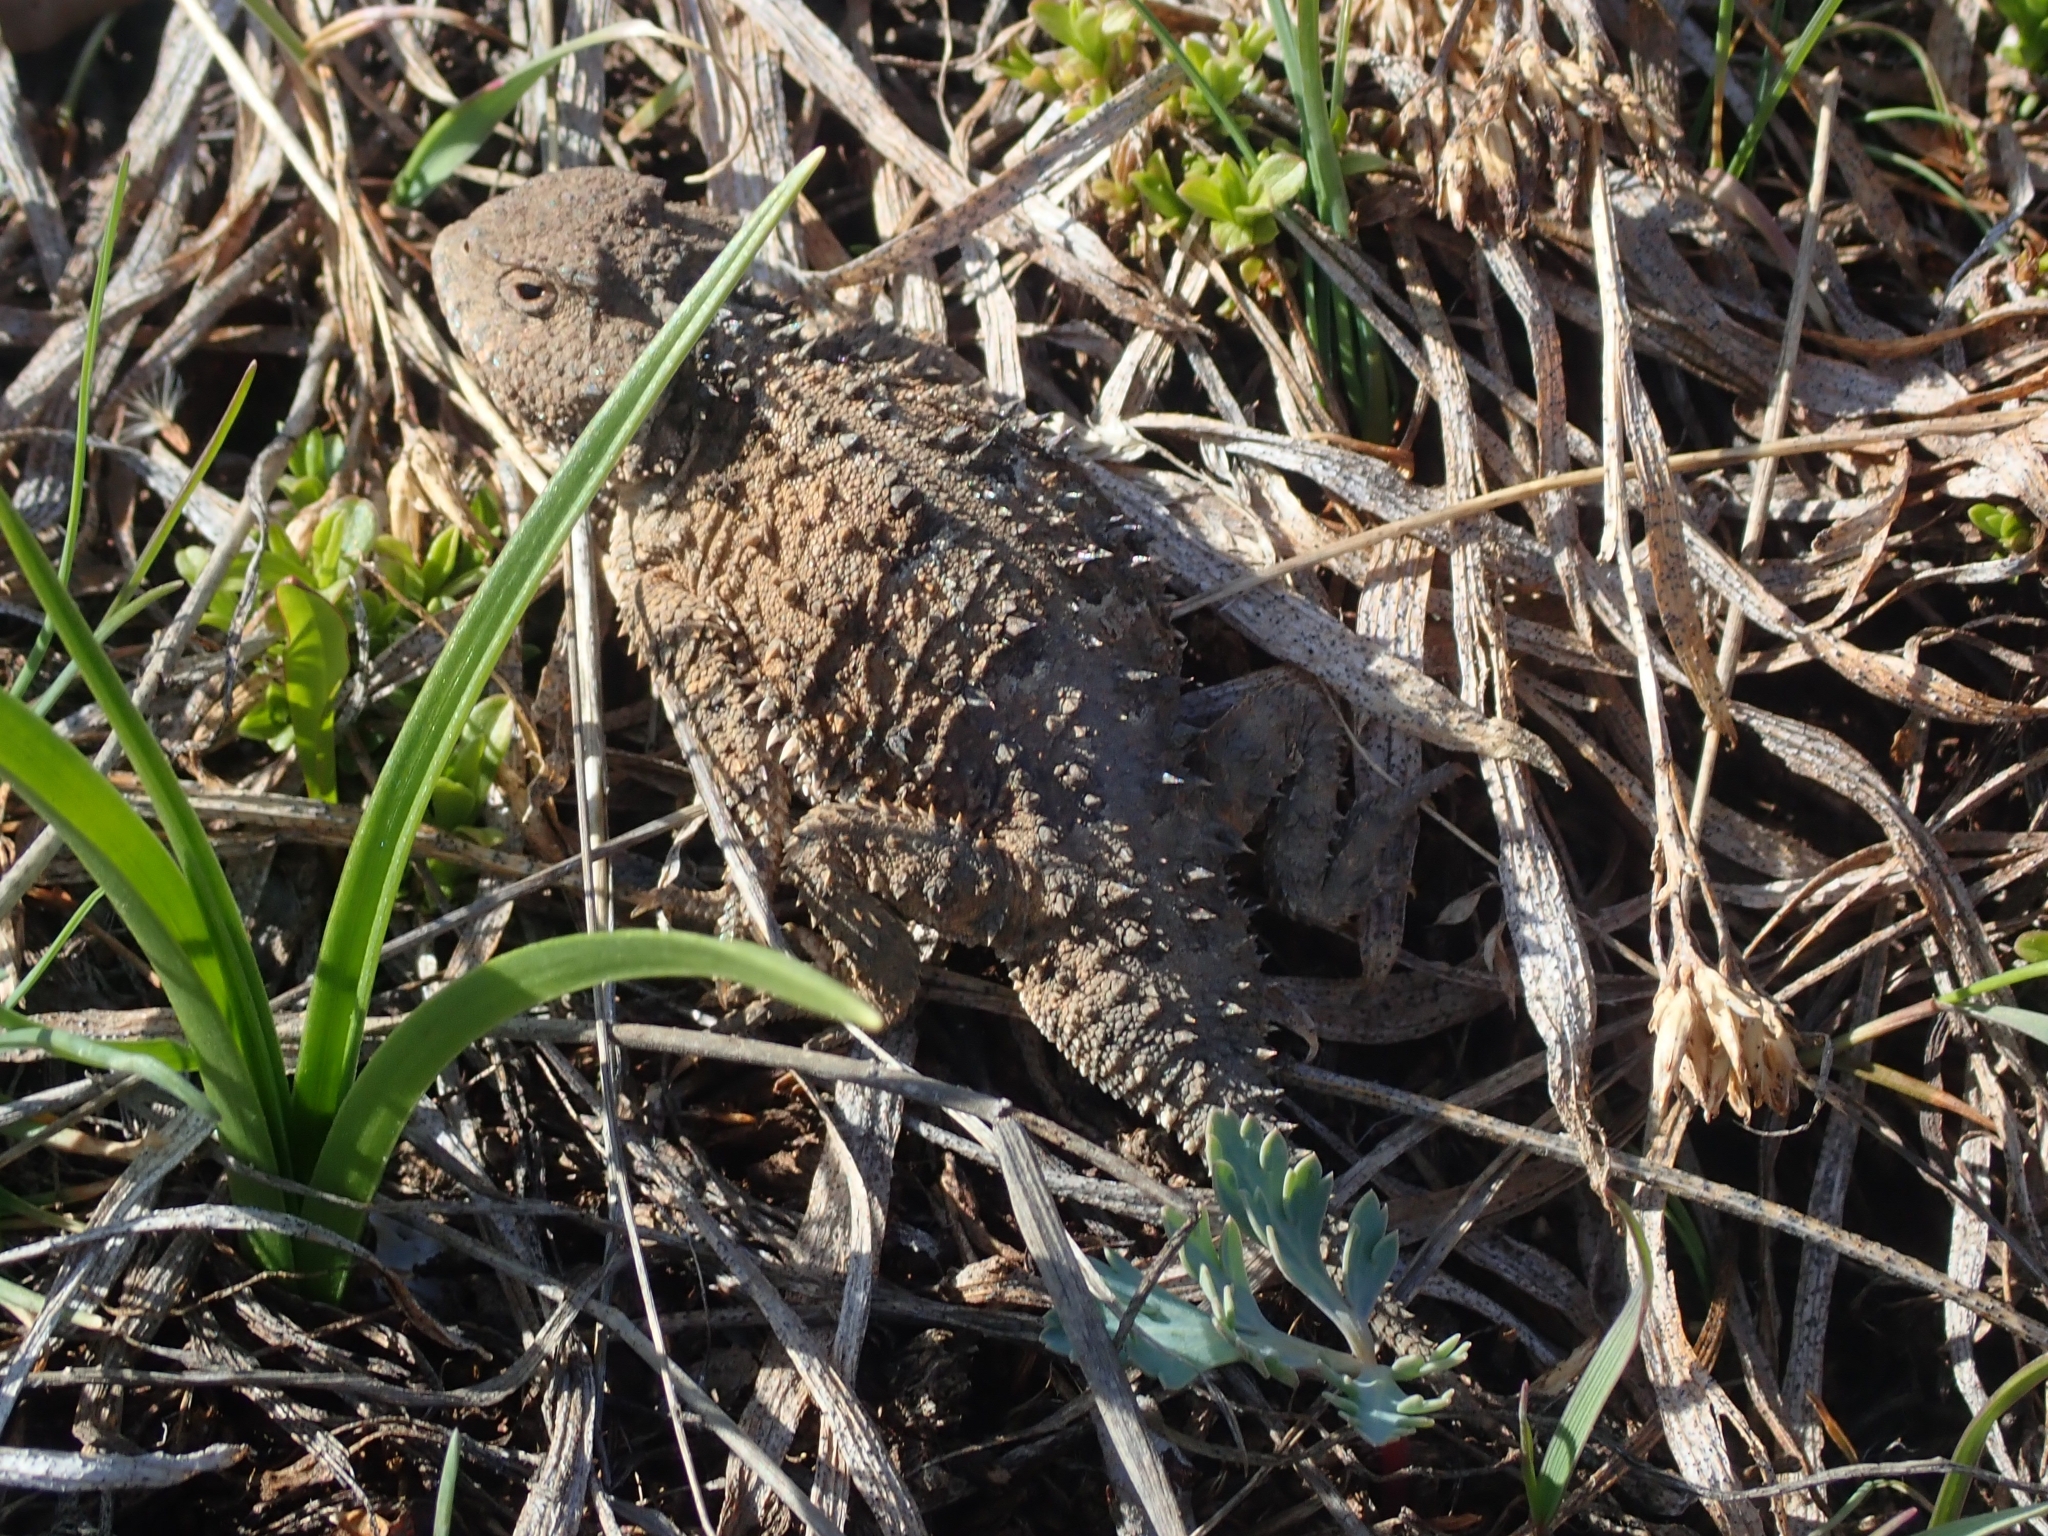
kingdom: Animalia
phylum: Chordata
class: Squamata
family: Phrynosomatidae
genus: Phrynosoma
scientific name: Phrynosoma hernandesi
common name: Greater short-horned lizard
